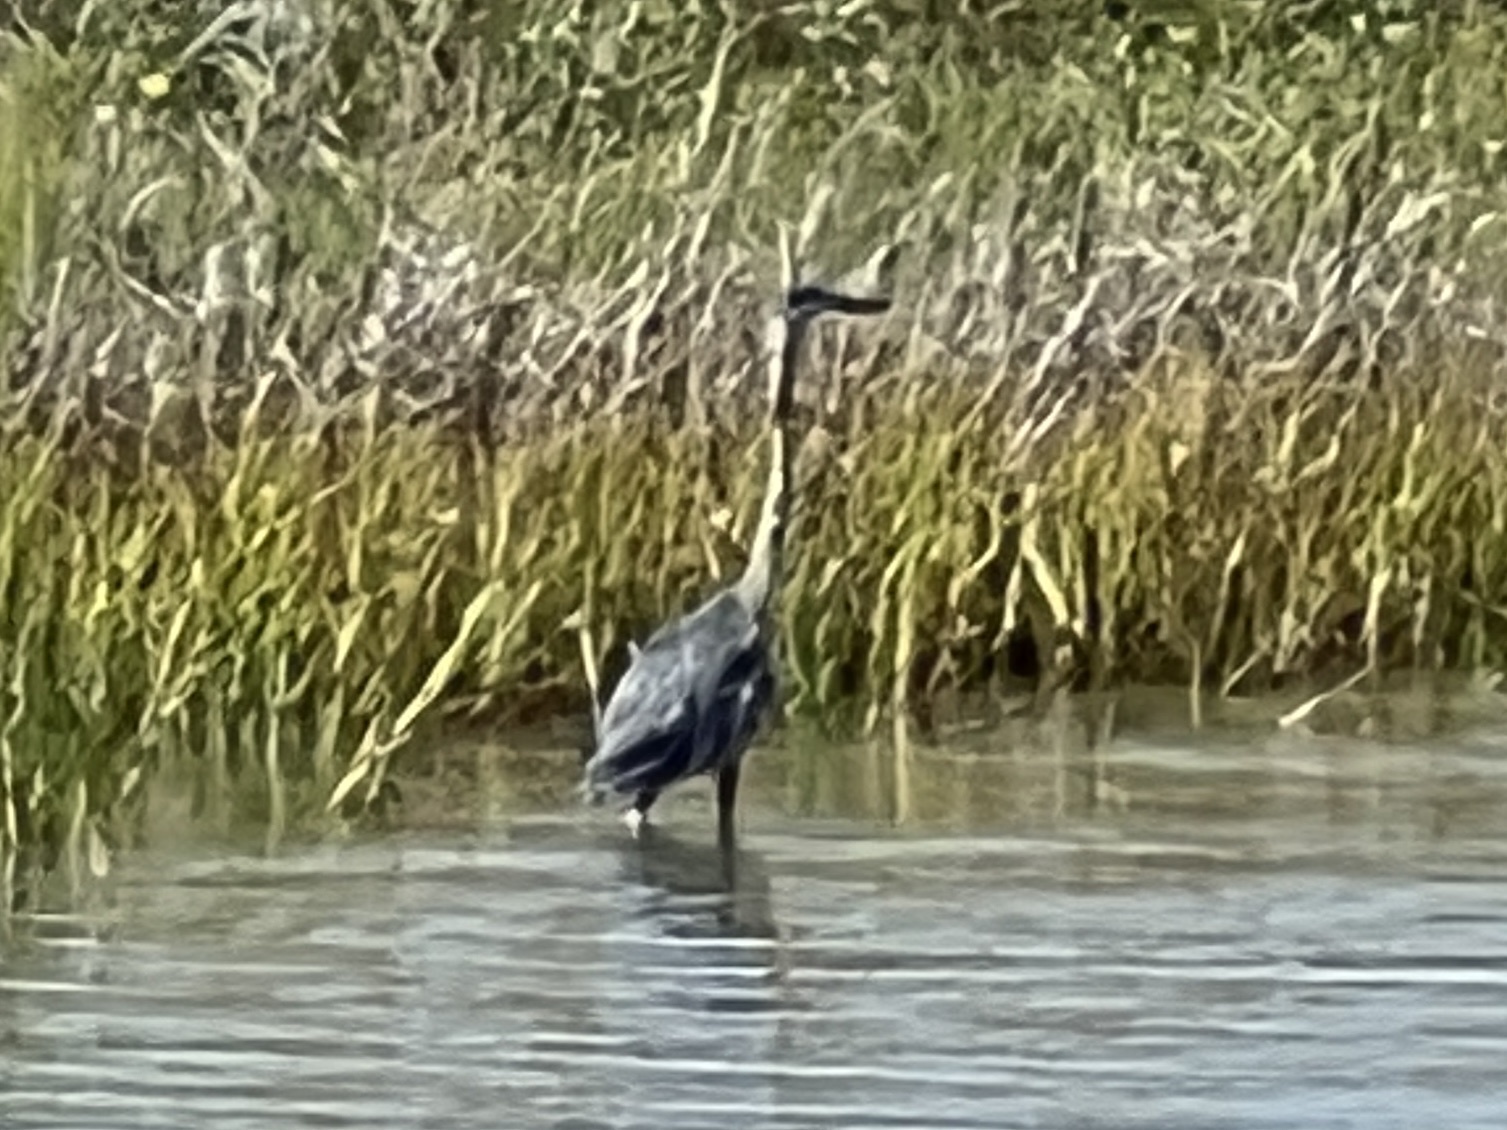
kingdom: Animalia
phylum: Chordata
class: Aves
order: Pelecaniformes
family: Ardeidae
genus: Ardea
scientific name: Ardea herodias
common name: Great blue heron
